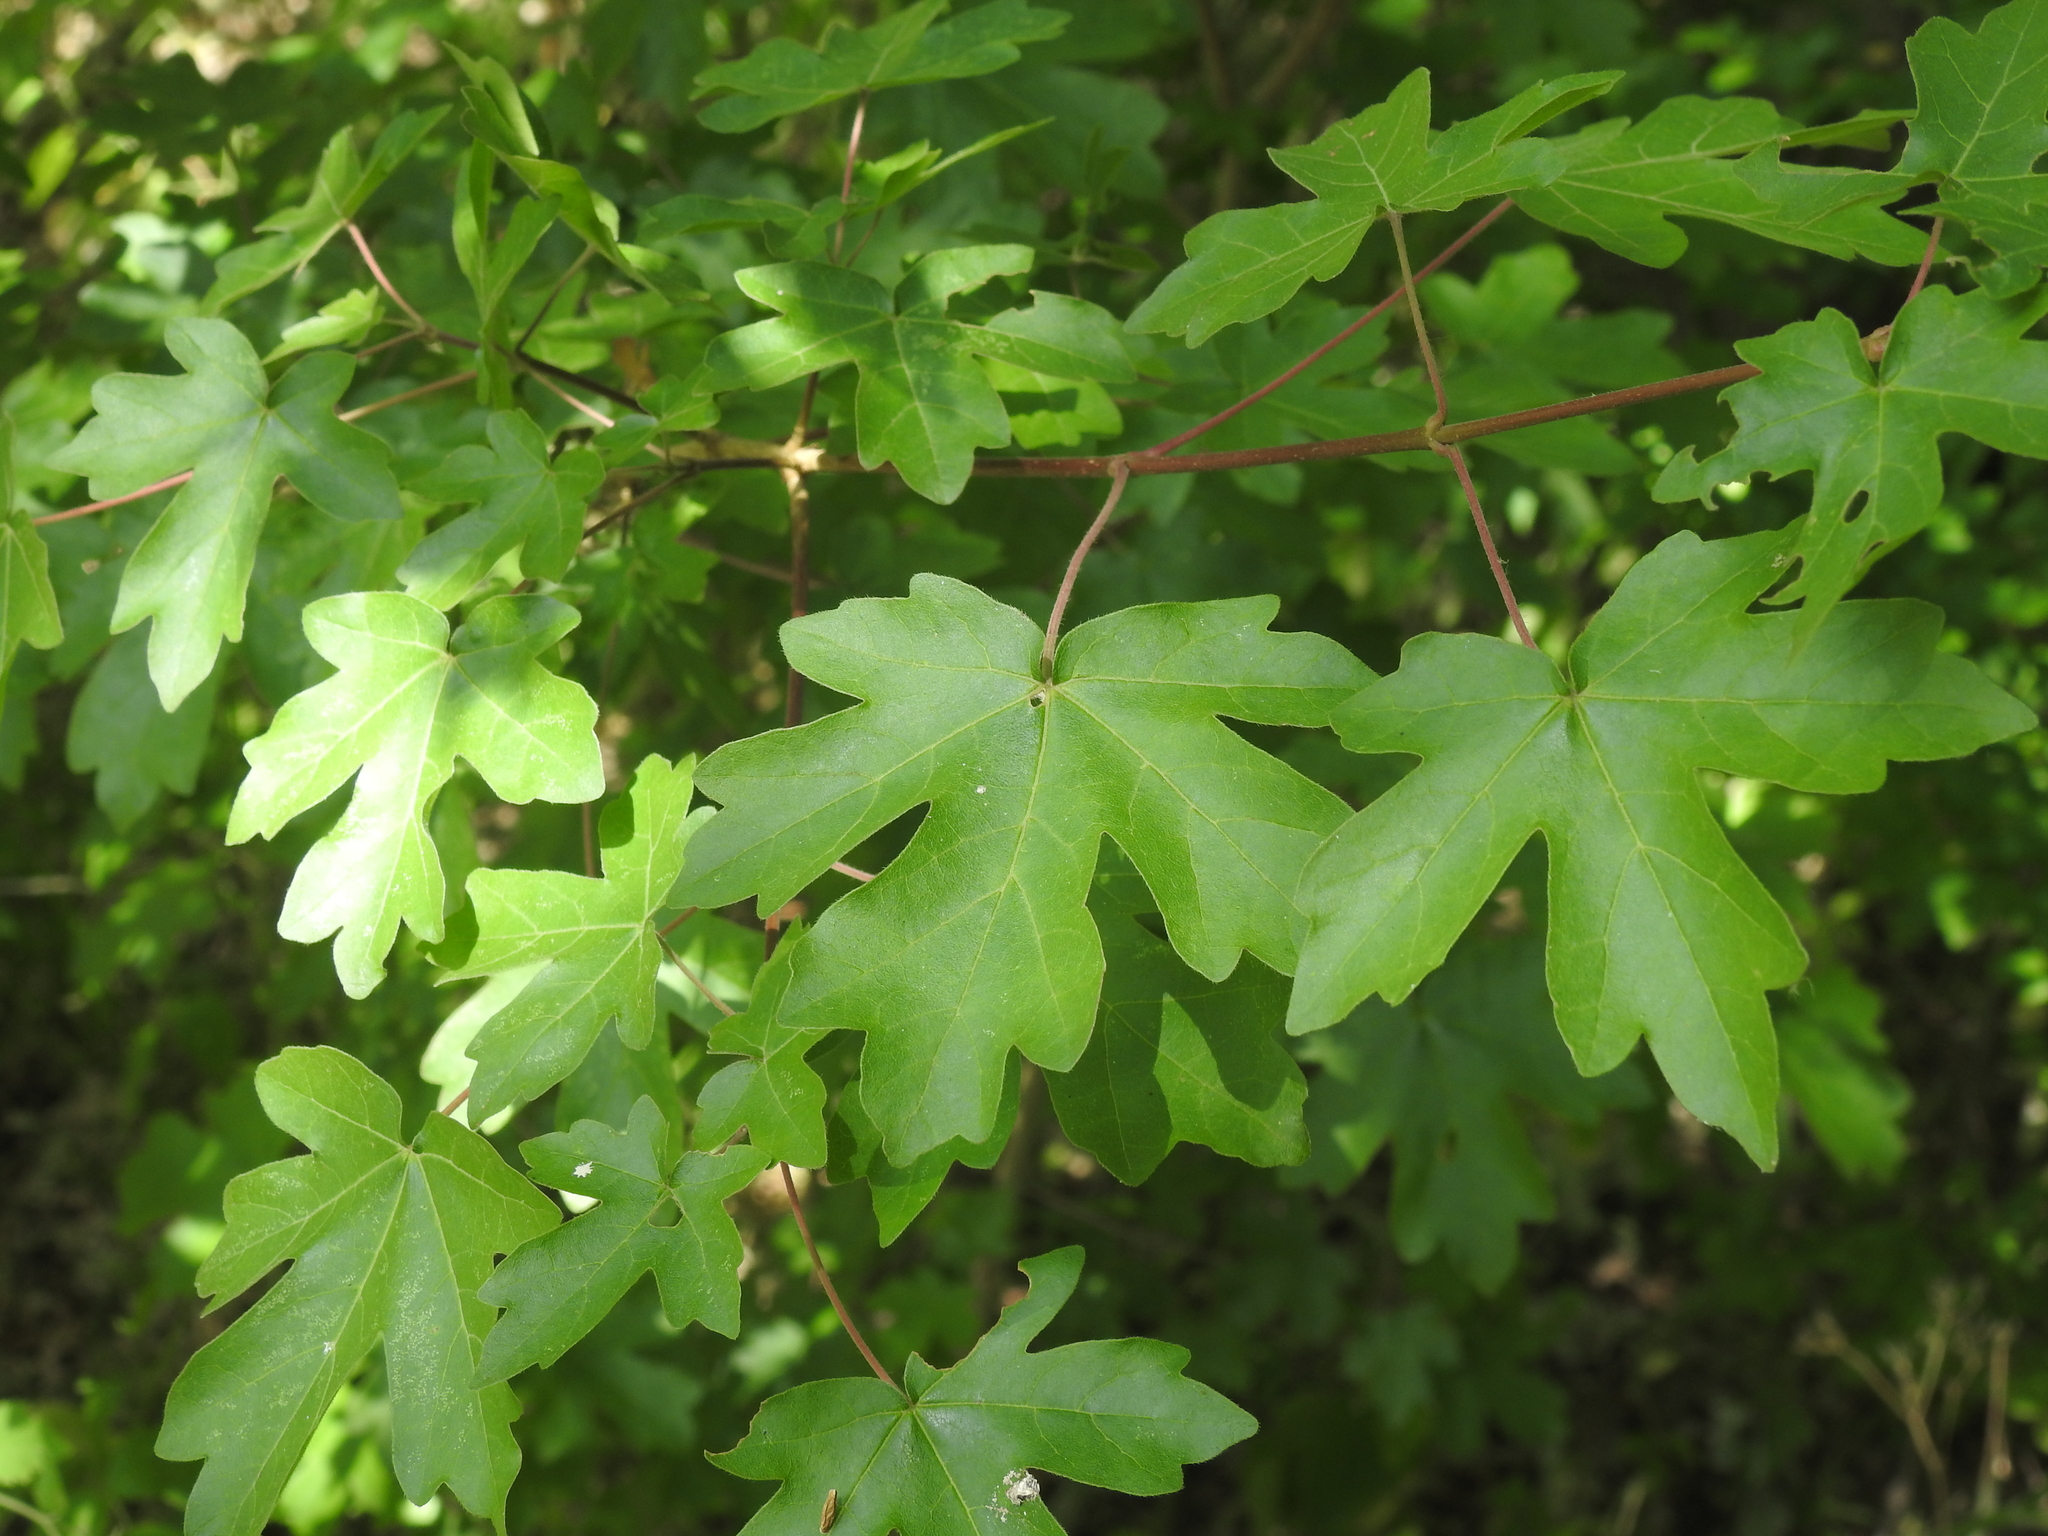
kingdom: Plantae
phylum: Tracheophyta
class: Magnoliopsida
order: Sapindales
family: Sapindaceae
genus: Acer
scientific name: Acer campestre
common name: Field maple
